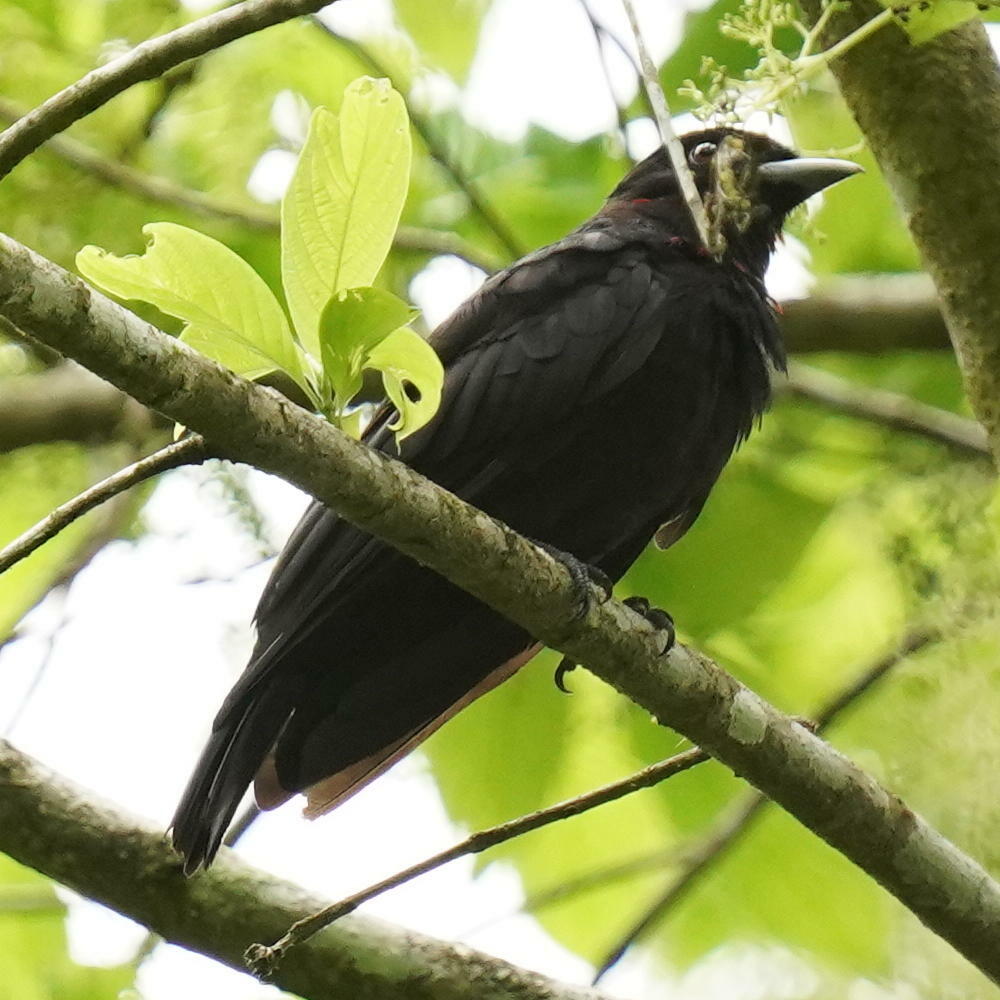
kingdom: Animalia
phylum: Chordata
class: Aves
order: Passeriformes
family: Cotingidae
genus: Querula
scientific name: Querula purpurata
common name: Purple-throated fruitcrow
